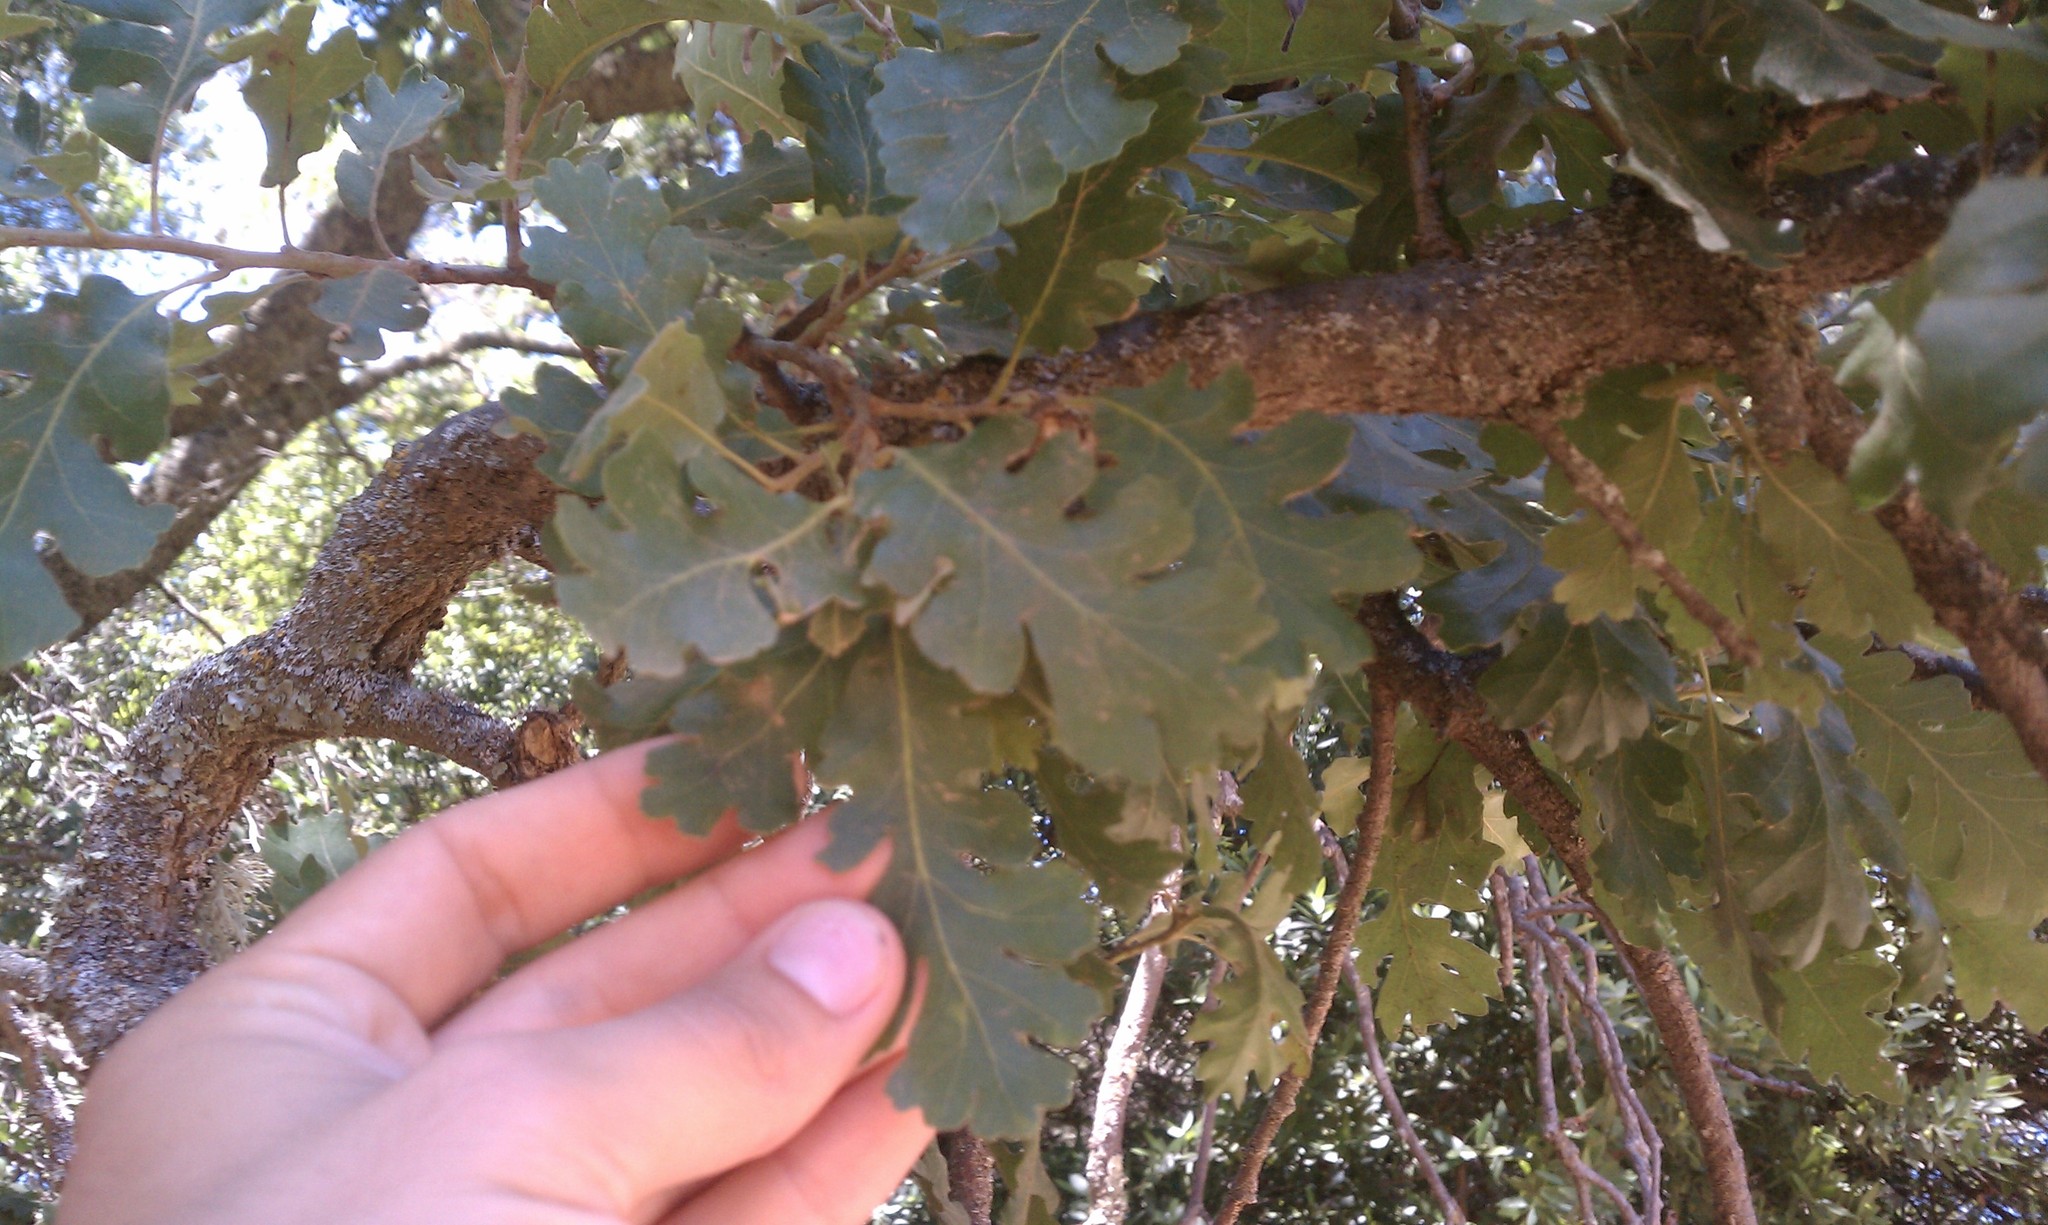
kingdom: Plantae
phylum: Tracheophyta
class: Magnoliopsida
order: Fagales
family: Fagaceae
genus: Quercus
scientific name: Quercus lobata
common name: Valley oak
